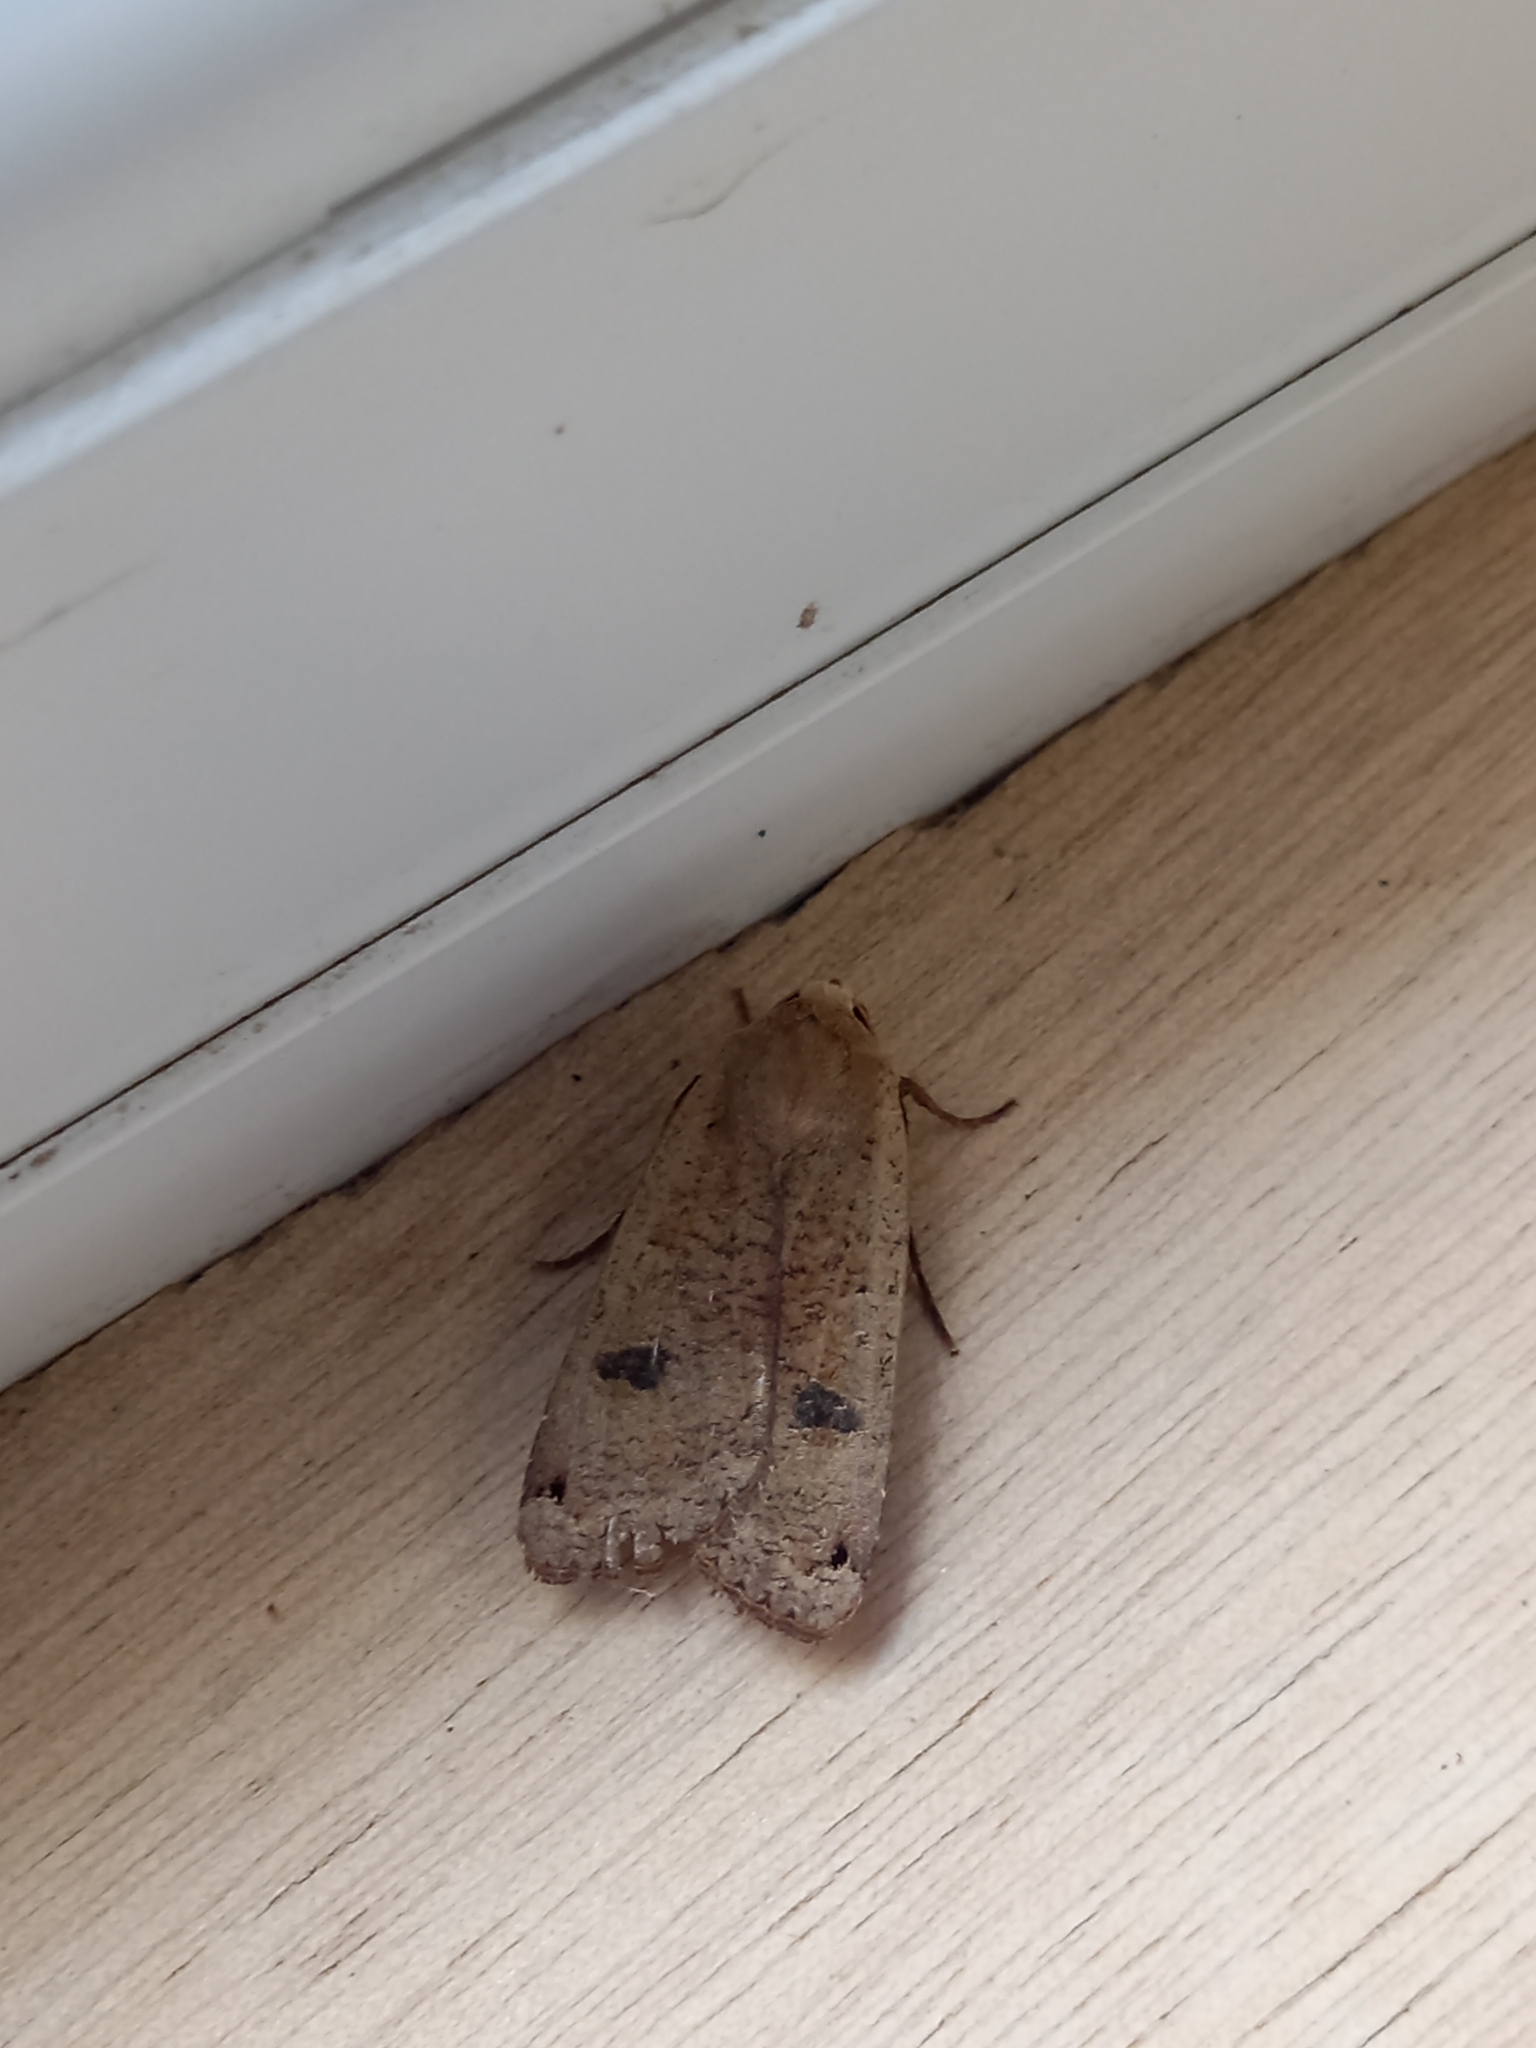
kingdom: Animalia
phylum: Arthropoda
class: Insecta
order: Lepidoptera
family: Noctuidae
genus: Noctua
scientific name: Noctua pronuba
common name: Large yellow underwing
